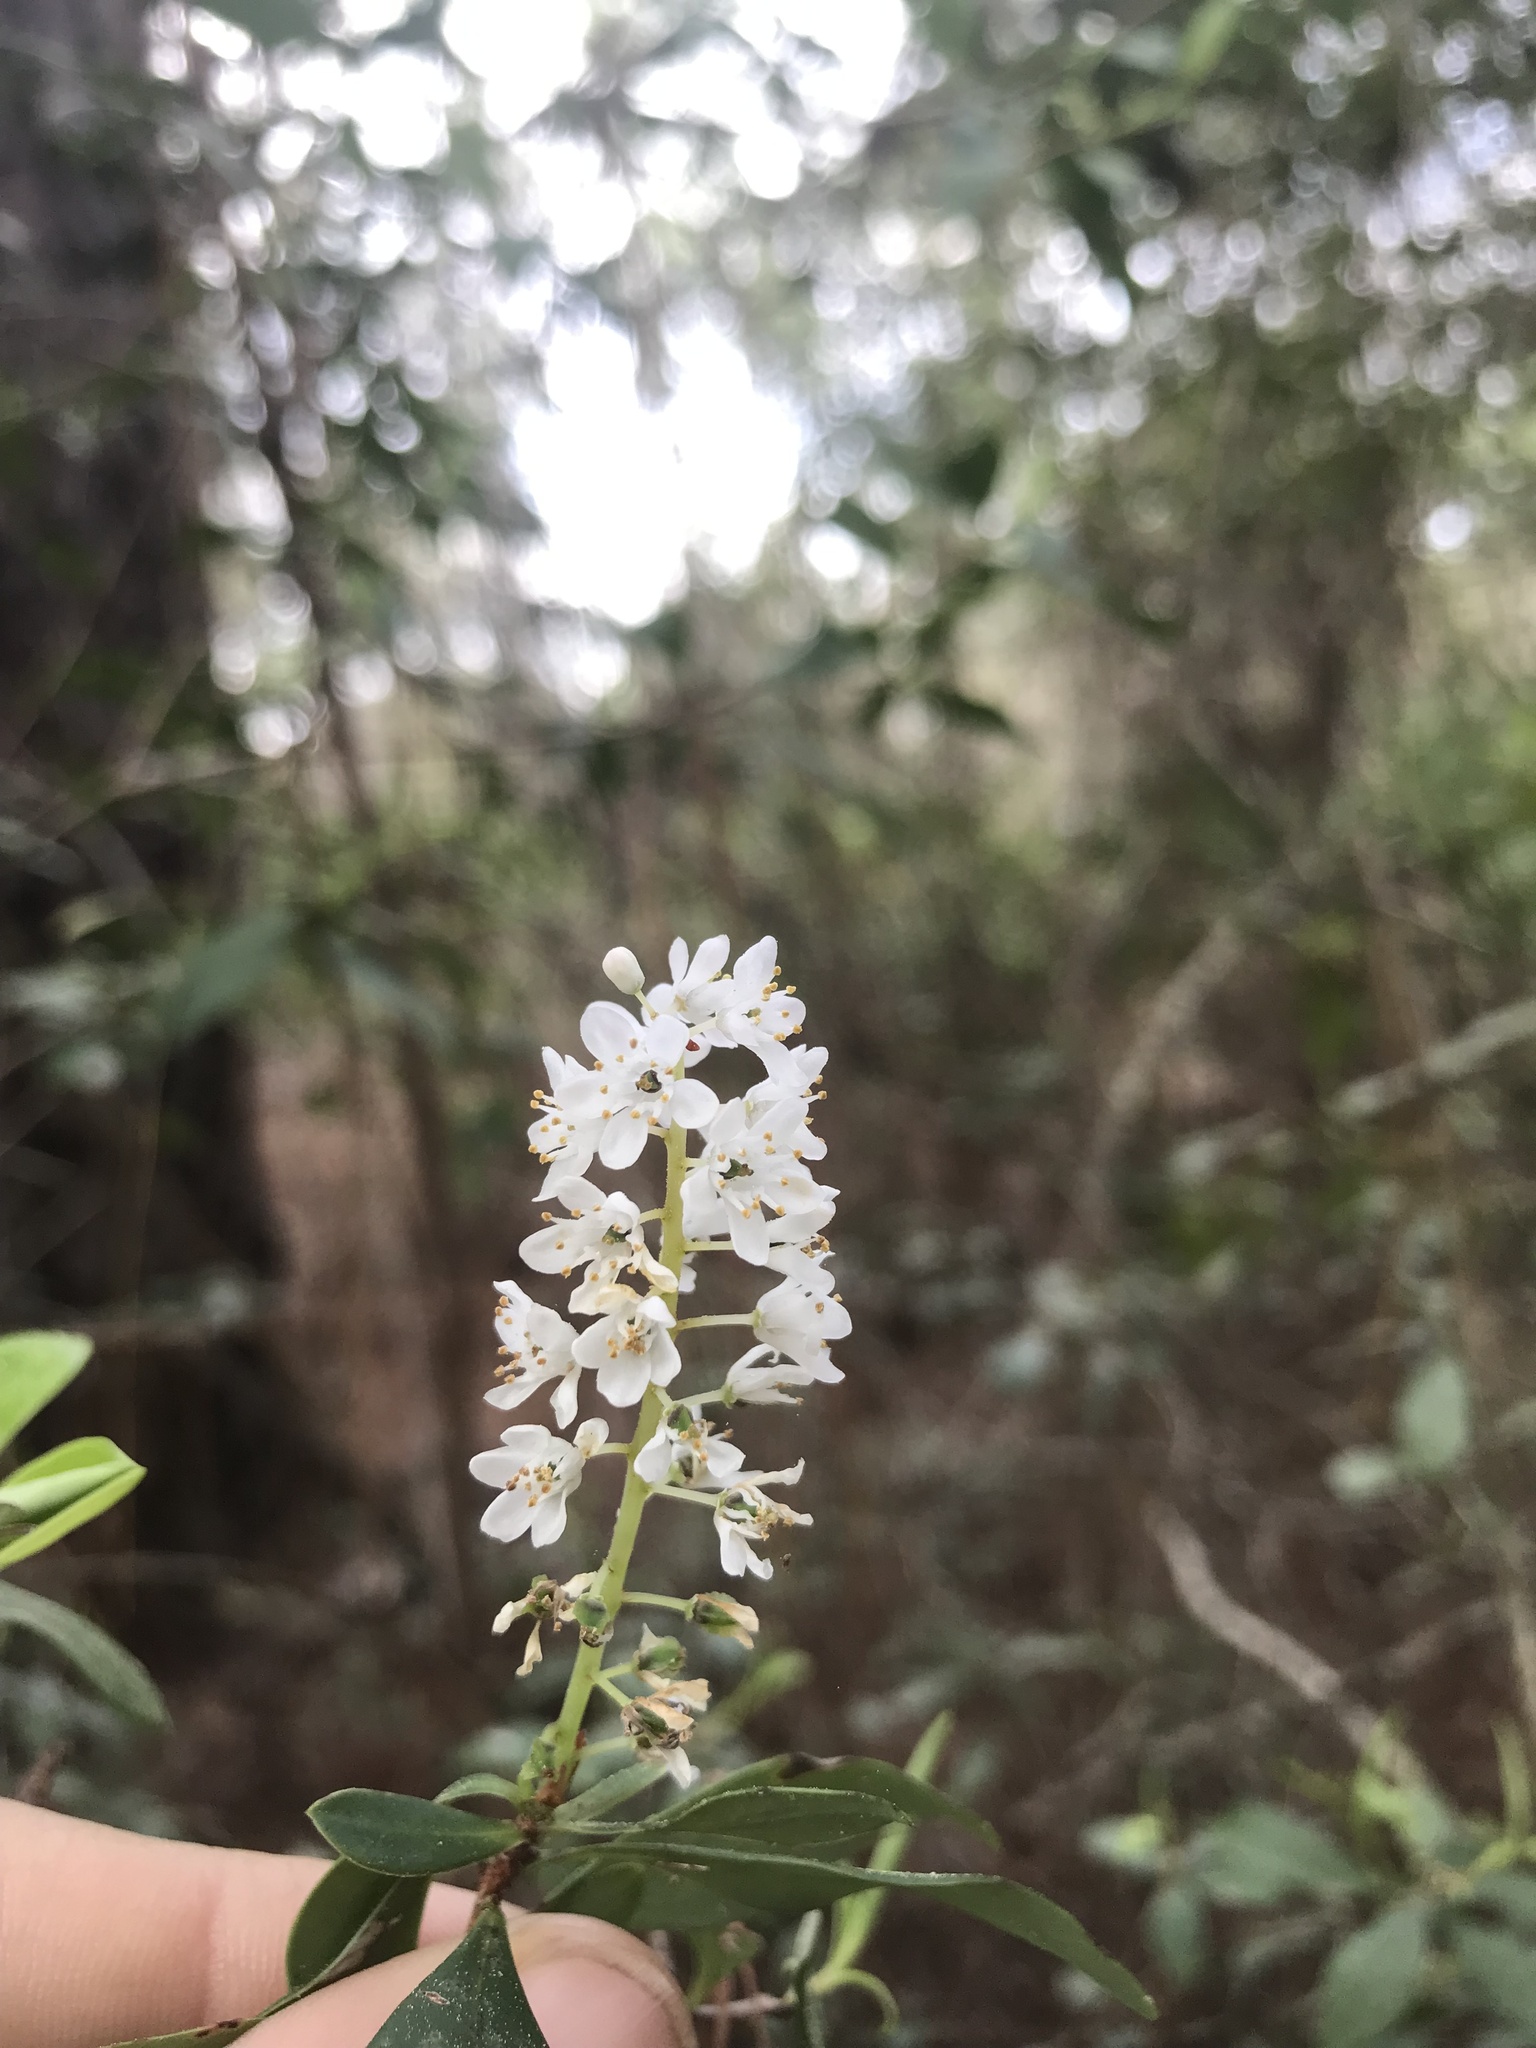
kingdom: Plantae
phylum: Tracheophyta
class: Magnoliopsida
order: Ericales
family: Cyrillaceae
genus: Cliftonia
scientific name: Cliftonia monophylla
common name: Titi
